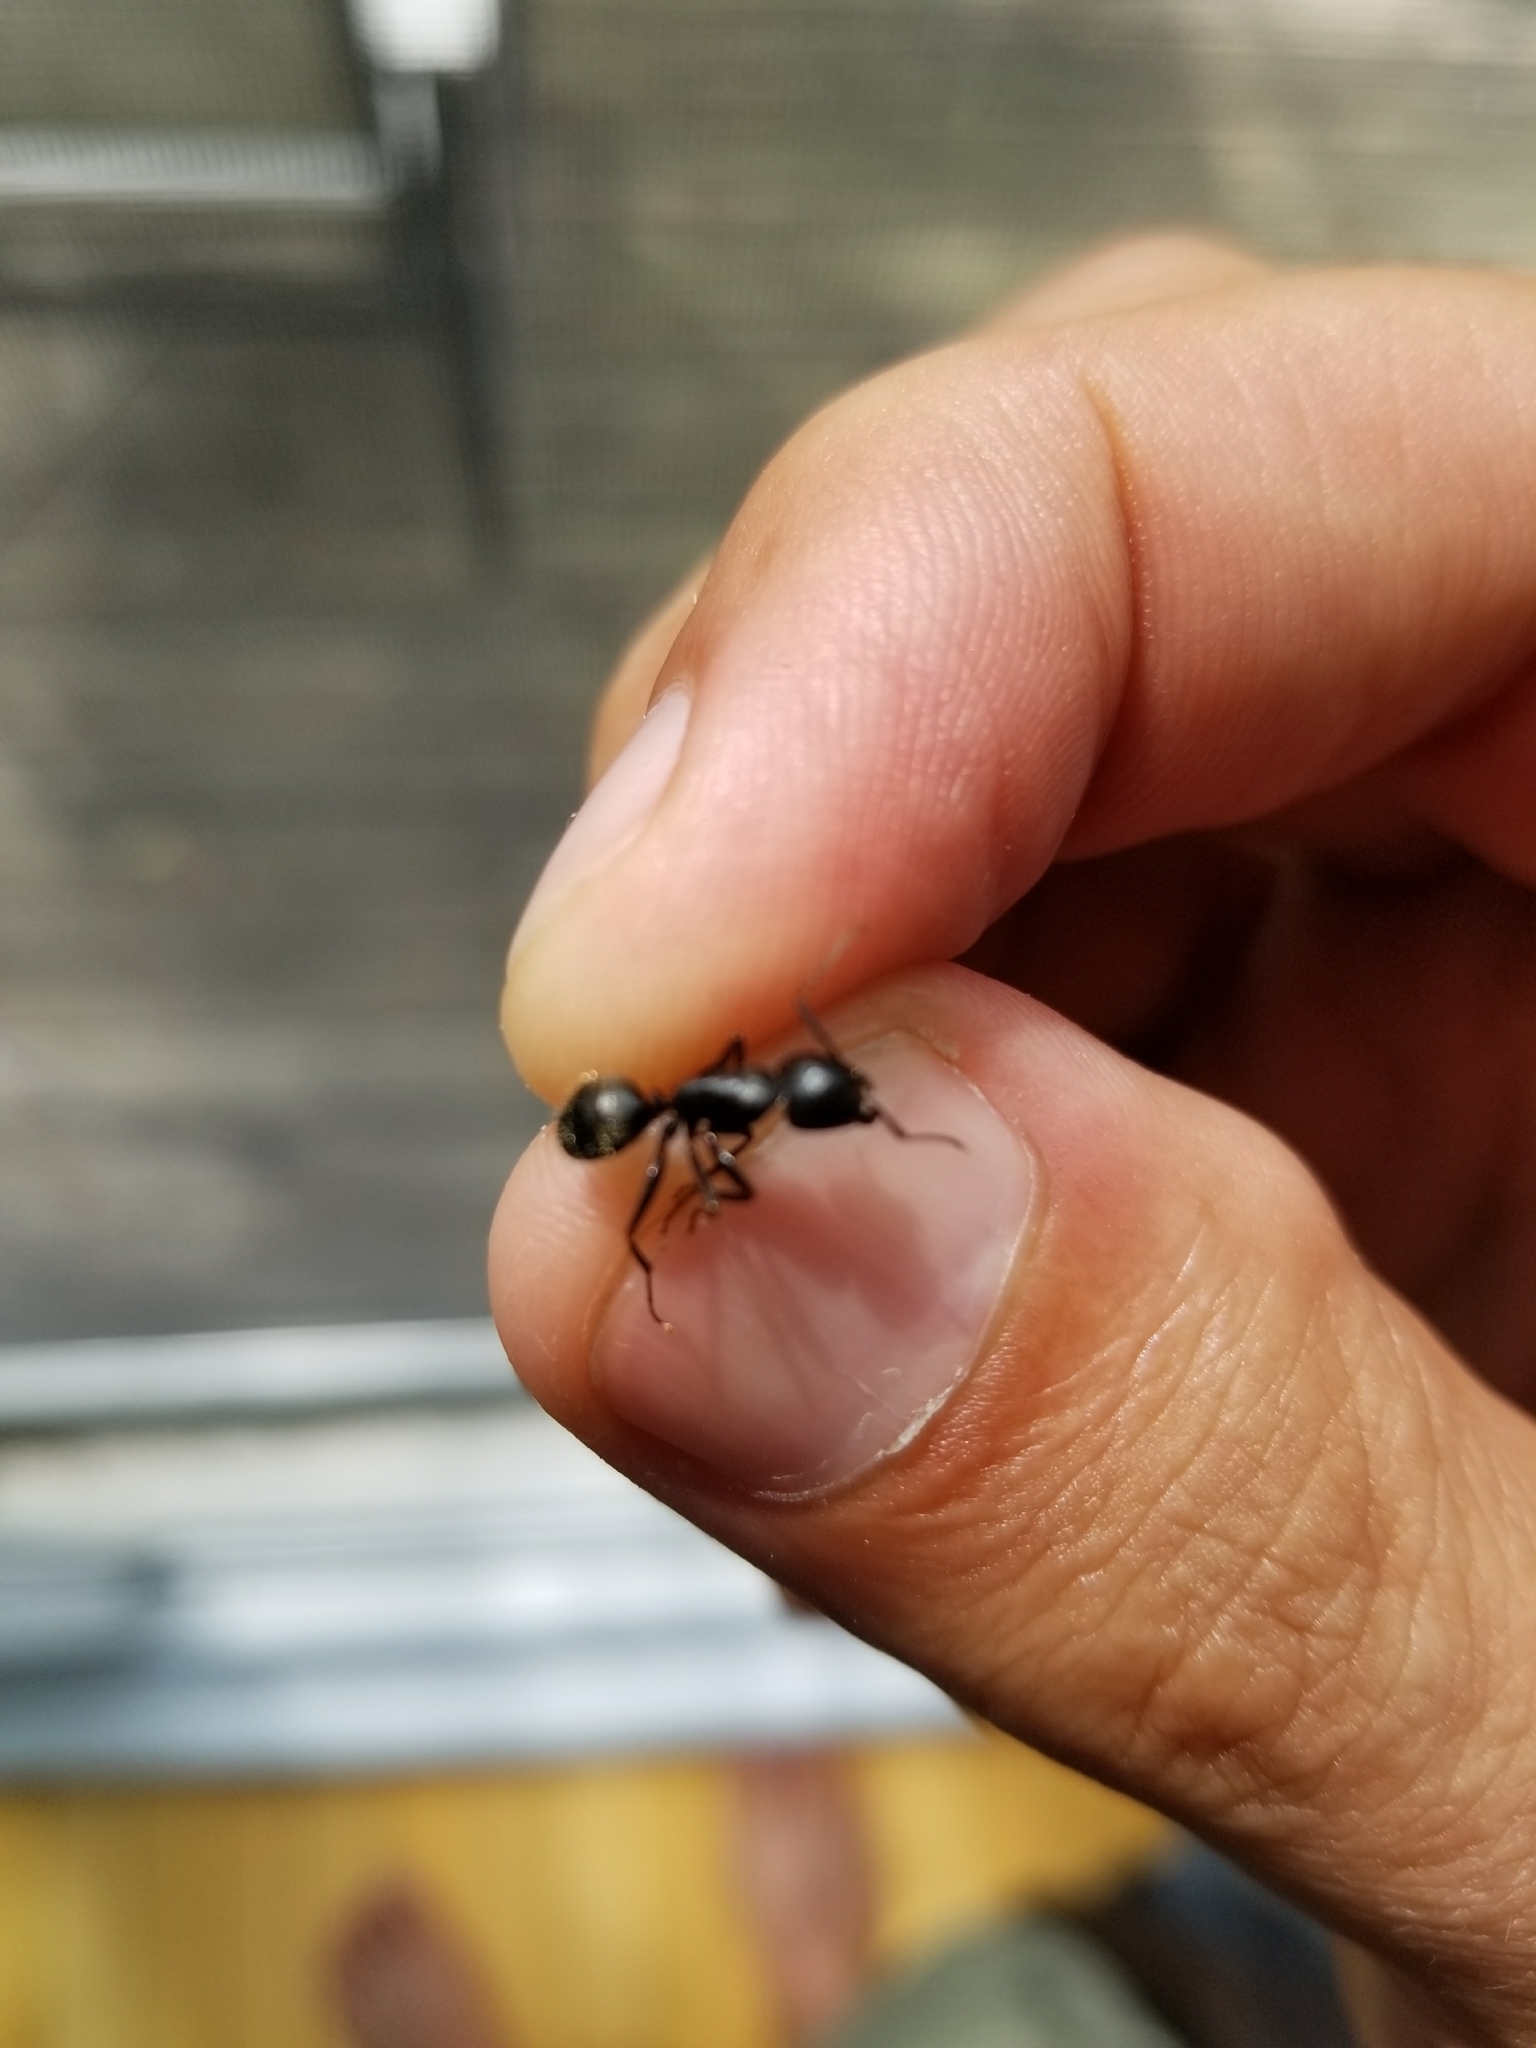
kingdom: Animalia
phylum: Arthropoda
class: Insecta
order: Hymenoptera
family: Formicidae
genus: Camponotus
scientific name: Camponotus pennsylvanicus
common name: Black carpenter ant
